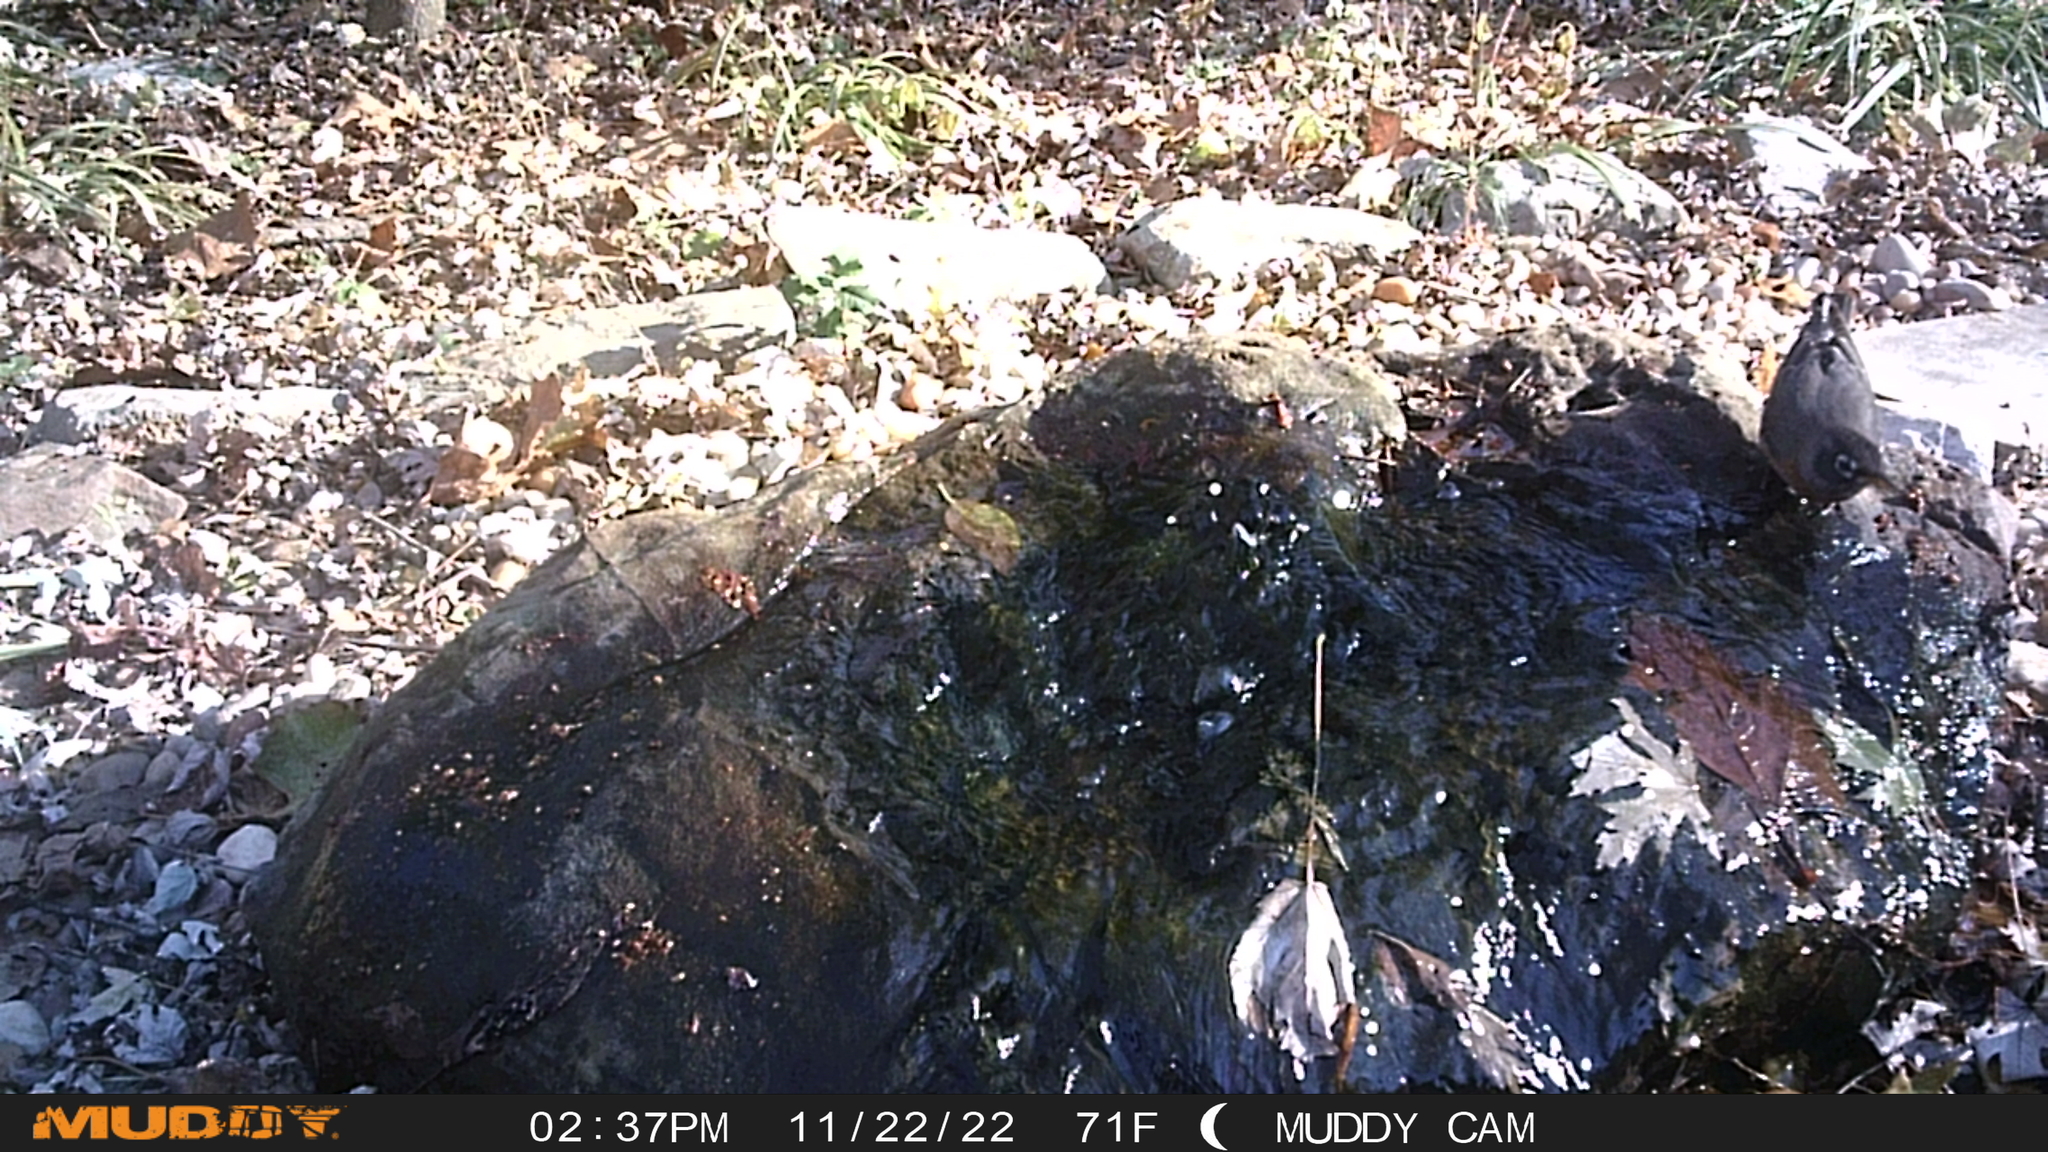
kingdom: Animalia
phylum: Chordata
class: Aves
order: Passeriformes
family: Turdidae
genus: Turdus
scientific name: Turdus migratorius
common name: American robin
